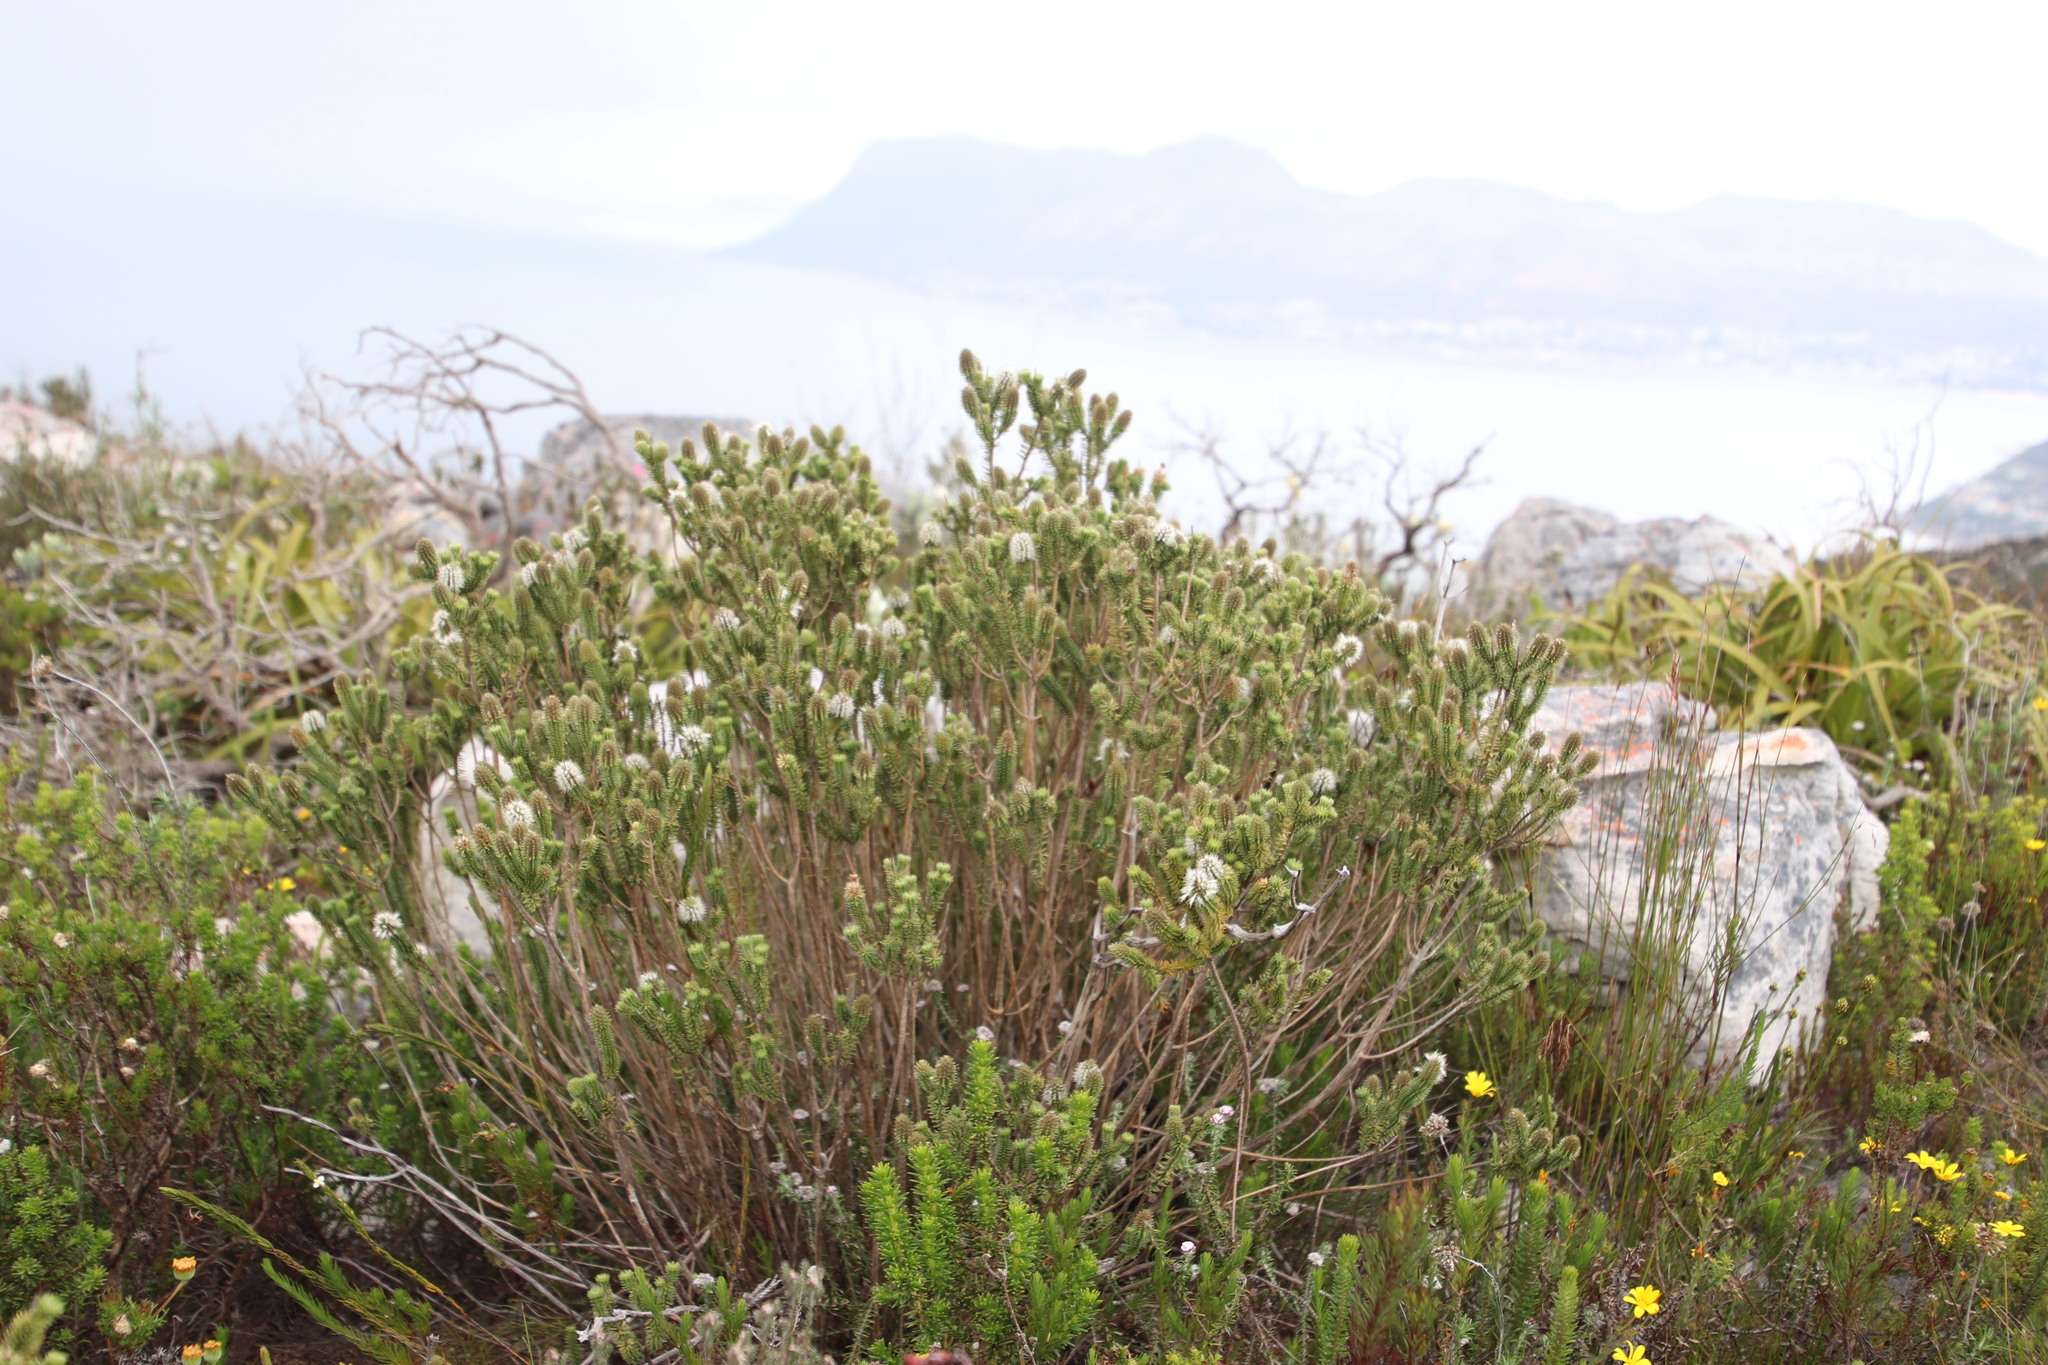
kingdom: Plantae
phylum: Tracheophyta
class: Magnoliopsida
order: Lamiales
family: Stilbaceae
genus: Stilbe
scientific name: Stilbe vestita
